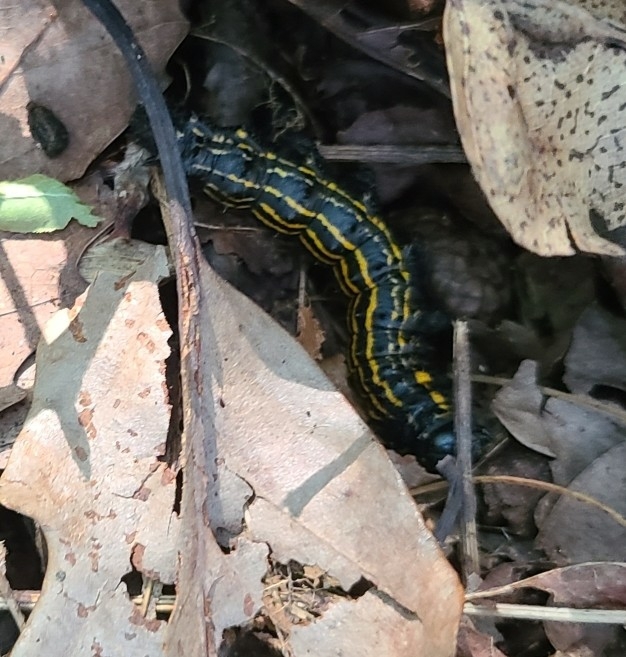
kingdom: Animalia
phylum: Arthropoda
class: Insecta
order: Lepidoptera
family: Saturniidae
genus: Anisota
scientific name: Anisota senatoria
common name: Orange-striped oakworm moth
